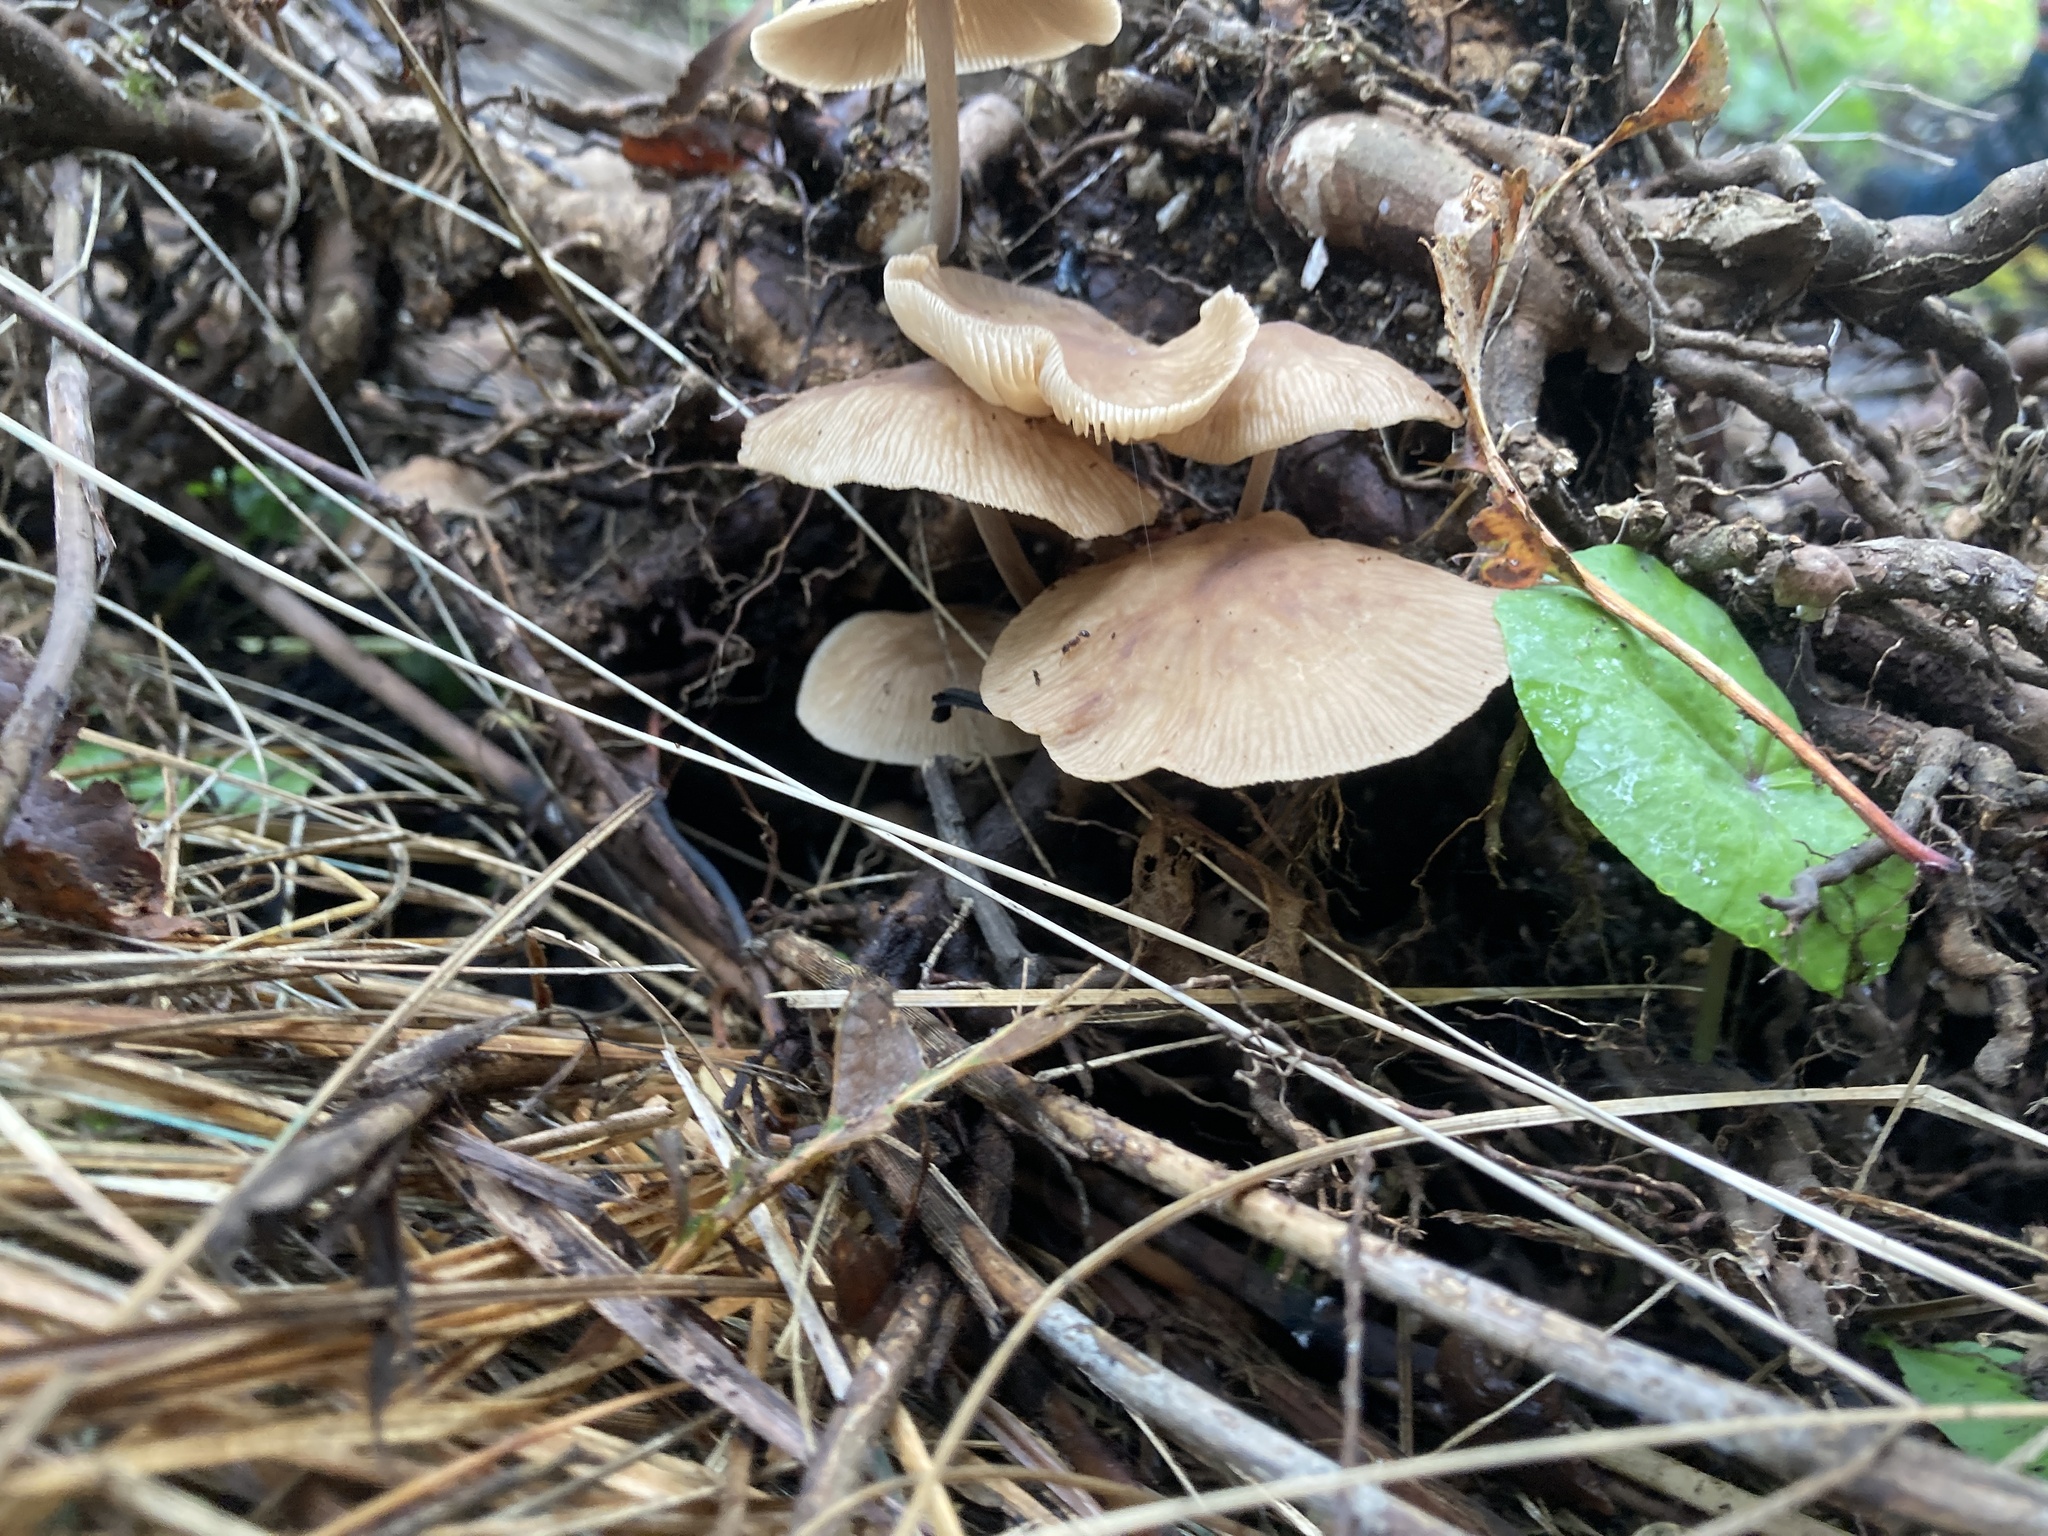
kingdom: Fungi
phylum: Basidiomycota
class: Agaricomycetes
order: Agaricales
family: Omphalotaceae
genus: Collybiopsis
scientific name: Collybiopsis subpruinosa
